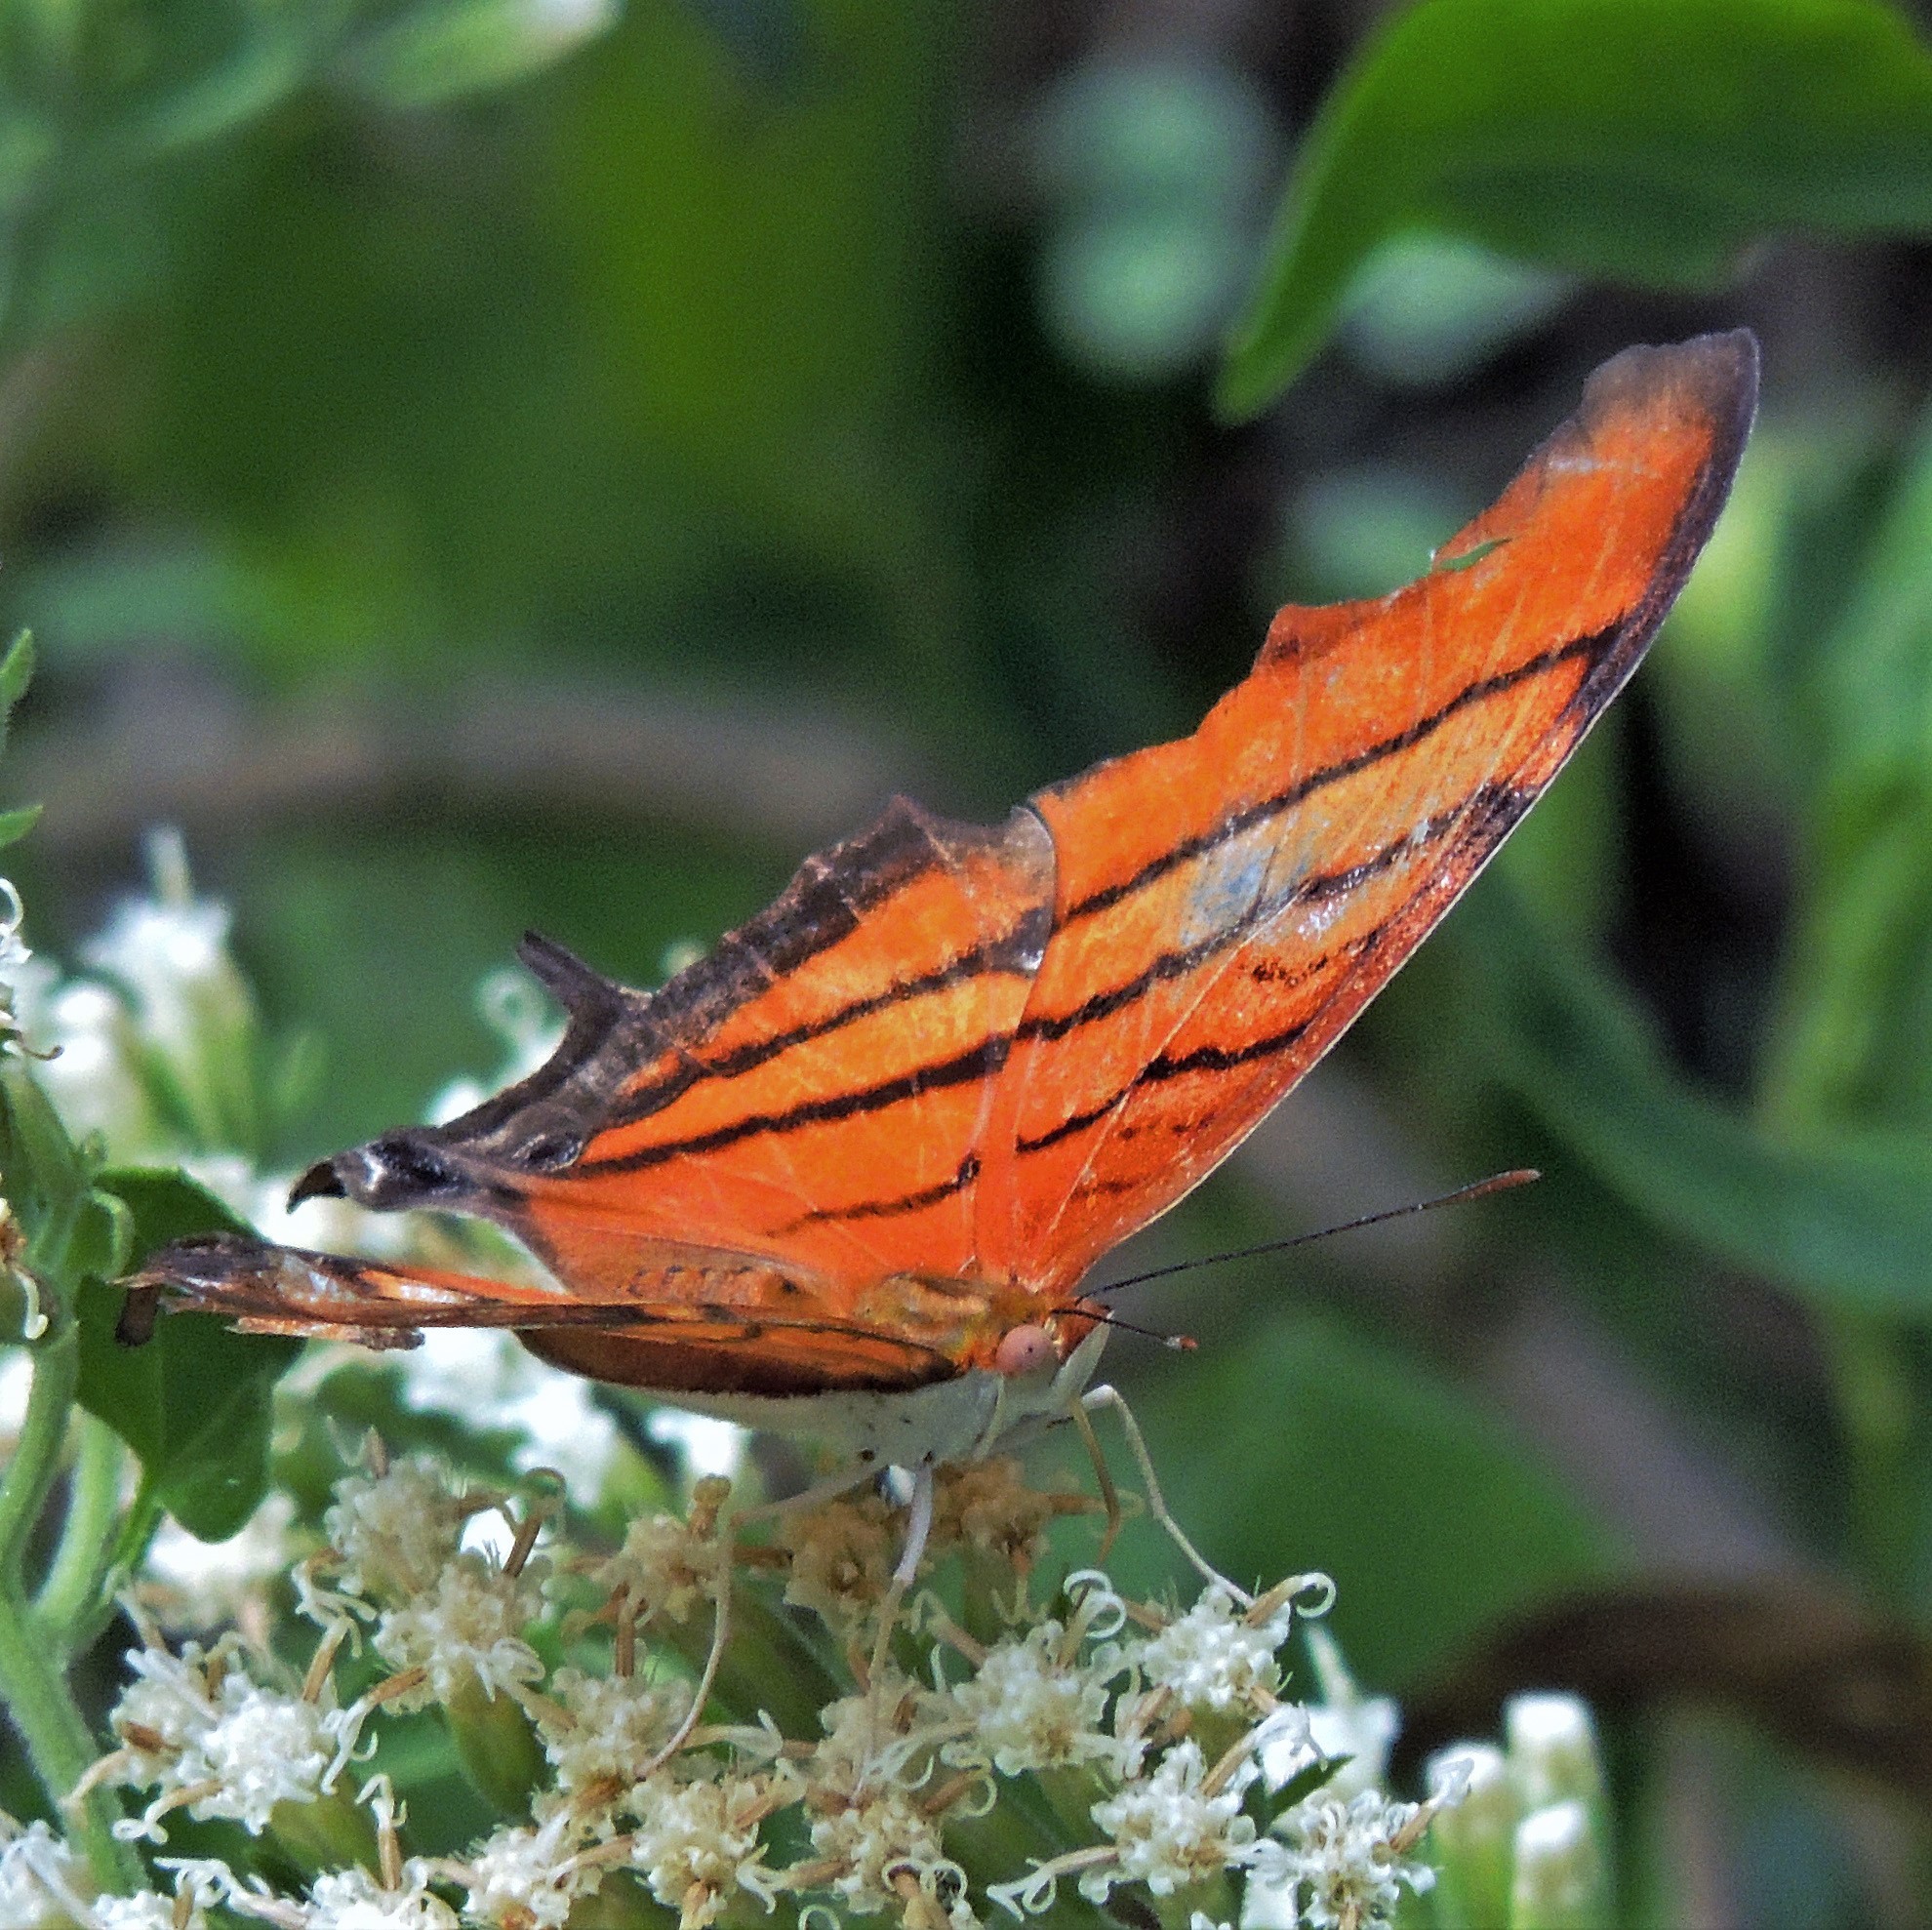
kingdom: Animalia
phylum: Arthropoda
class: Insecta
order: Lepidoptera
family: Nymphalidae
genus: Marpesia
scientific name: Marpesia petreus
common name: Red dagger wing
